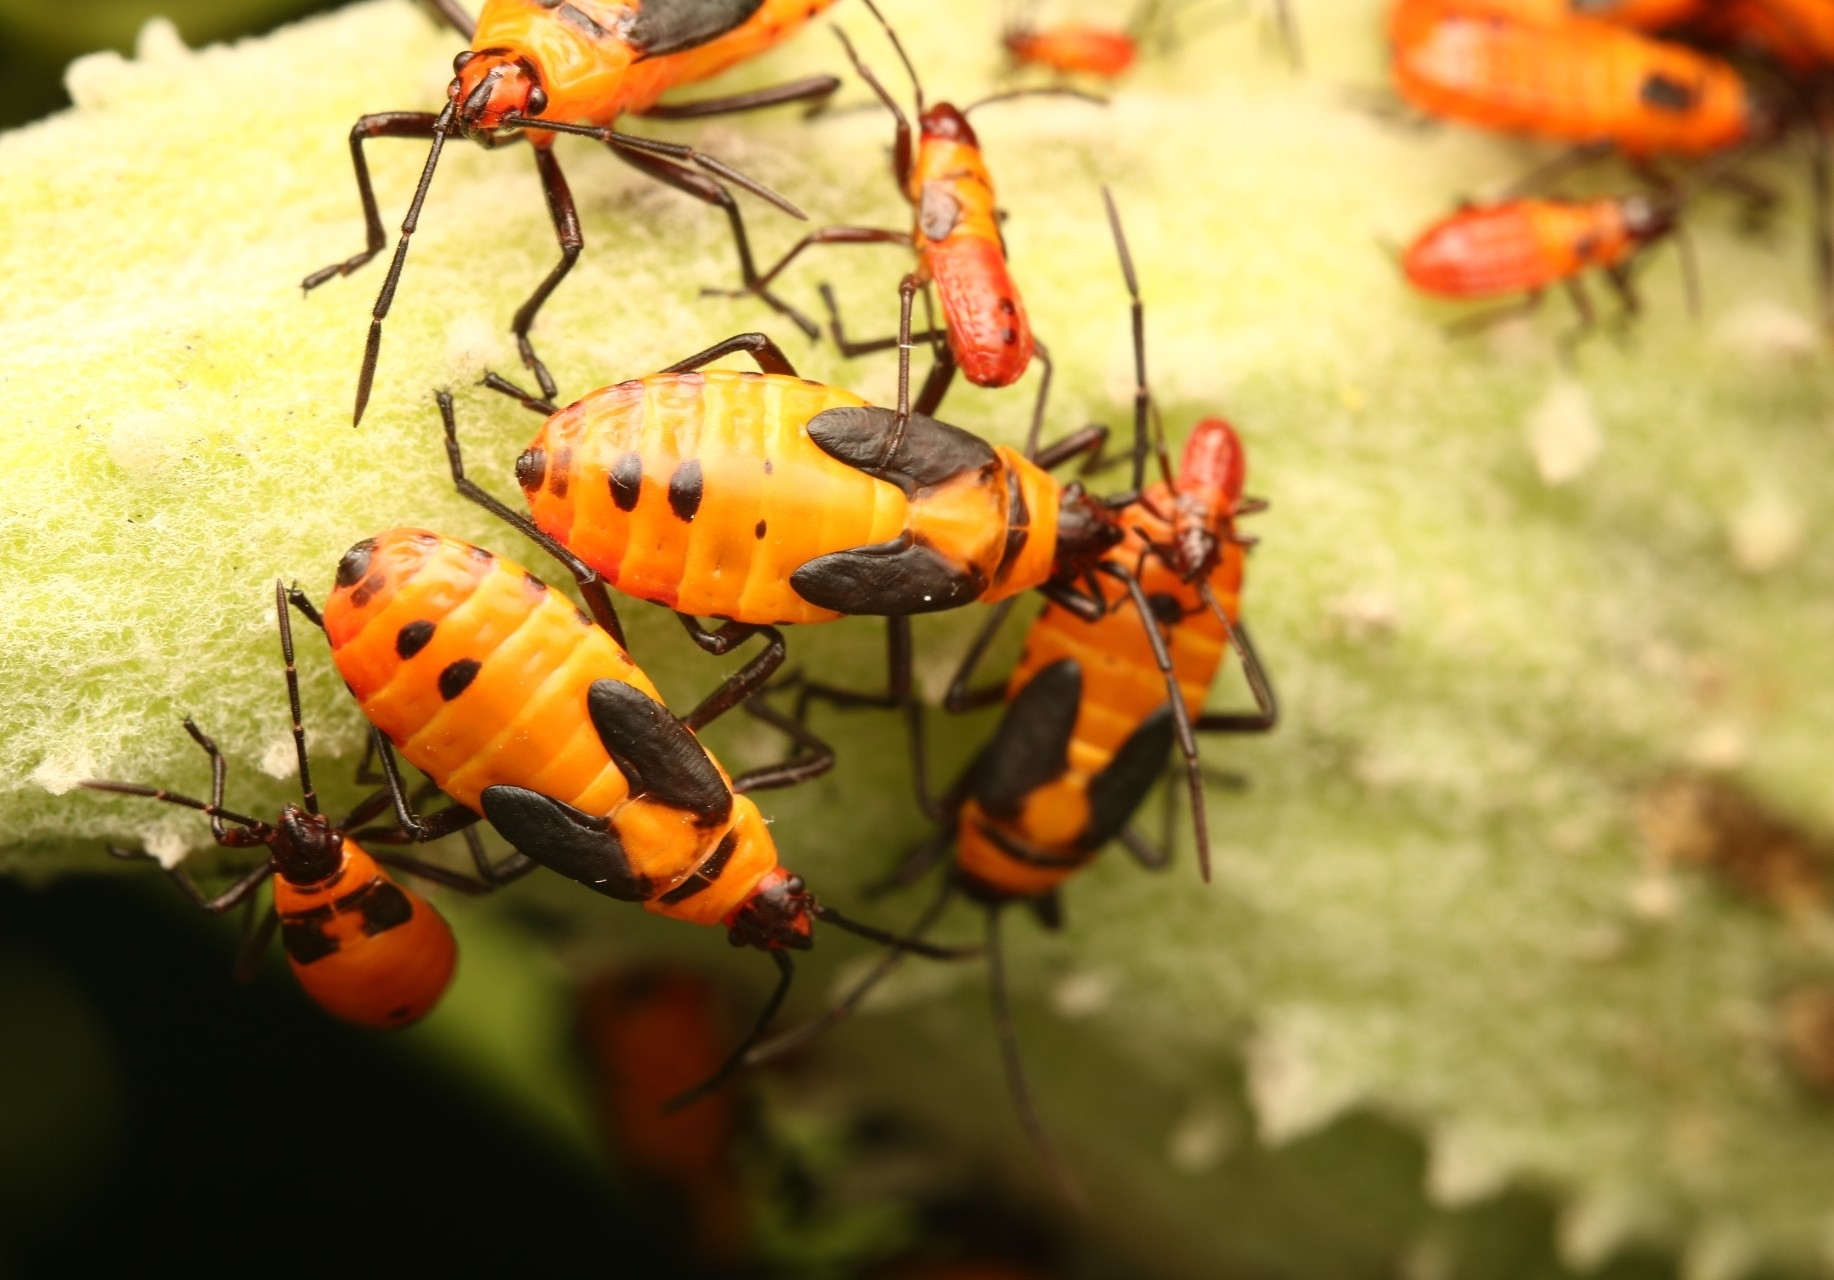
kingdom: Animalia
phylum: Arthropoda
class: Insecta
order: Hemiptera
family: Lygaeidae
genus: Oncopeltus
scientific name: Oncopeltus fasciatus
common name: Large milkweed bug
